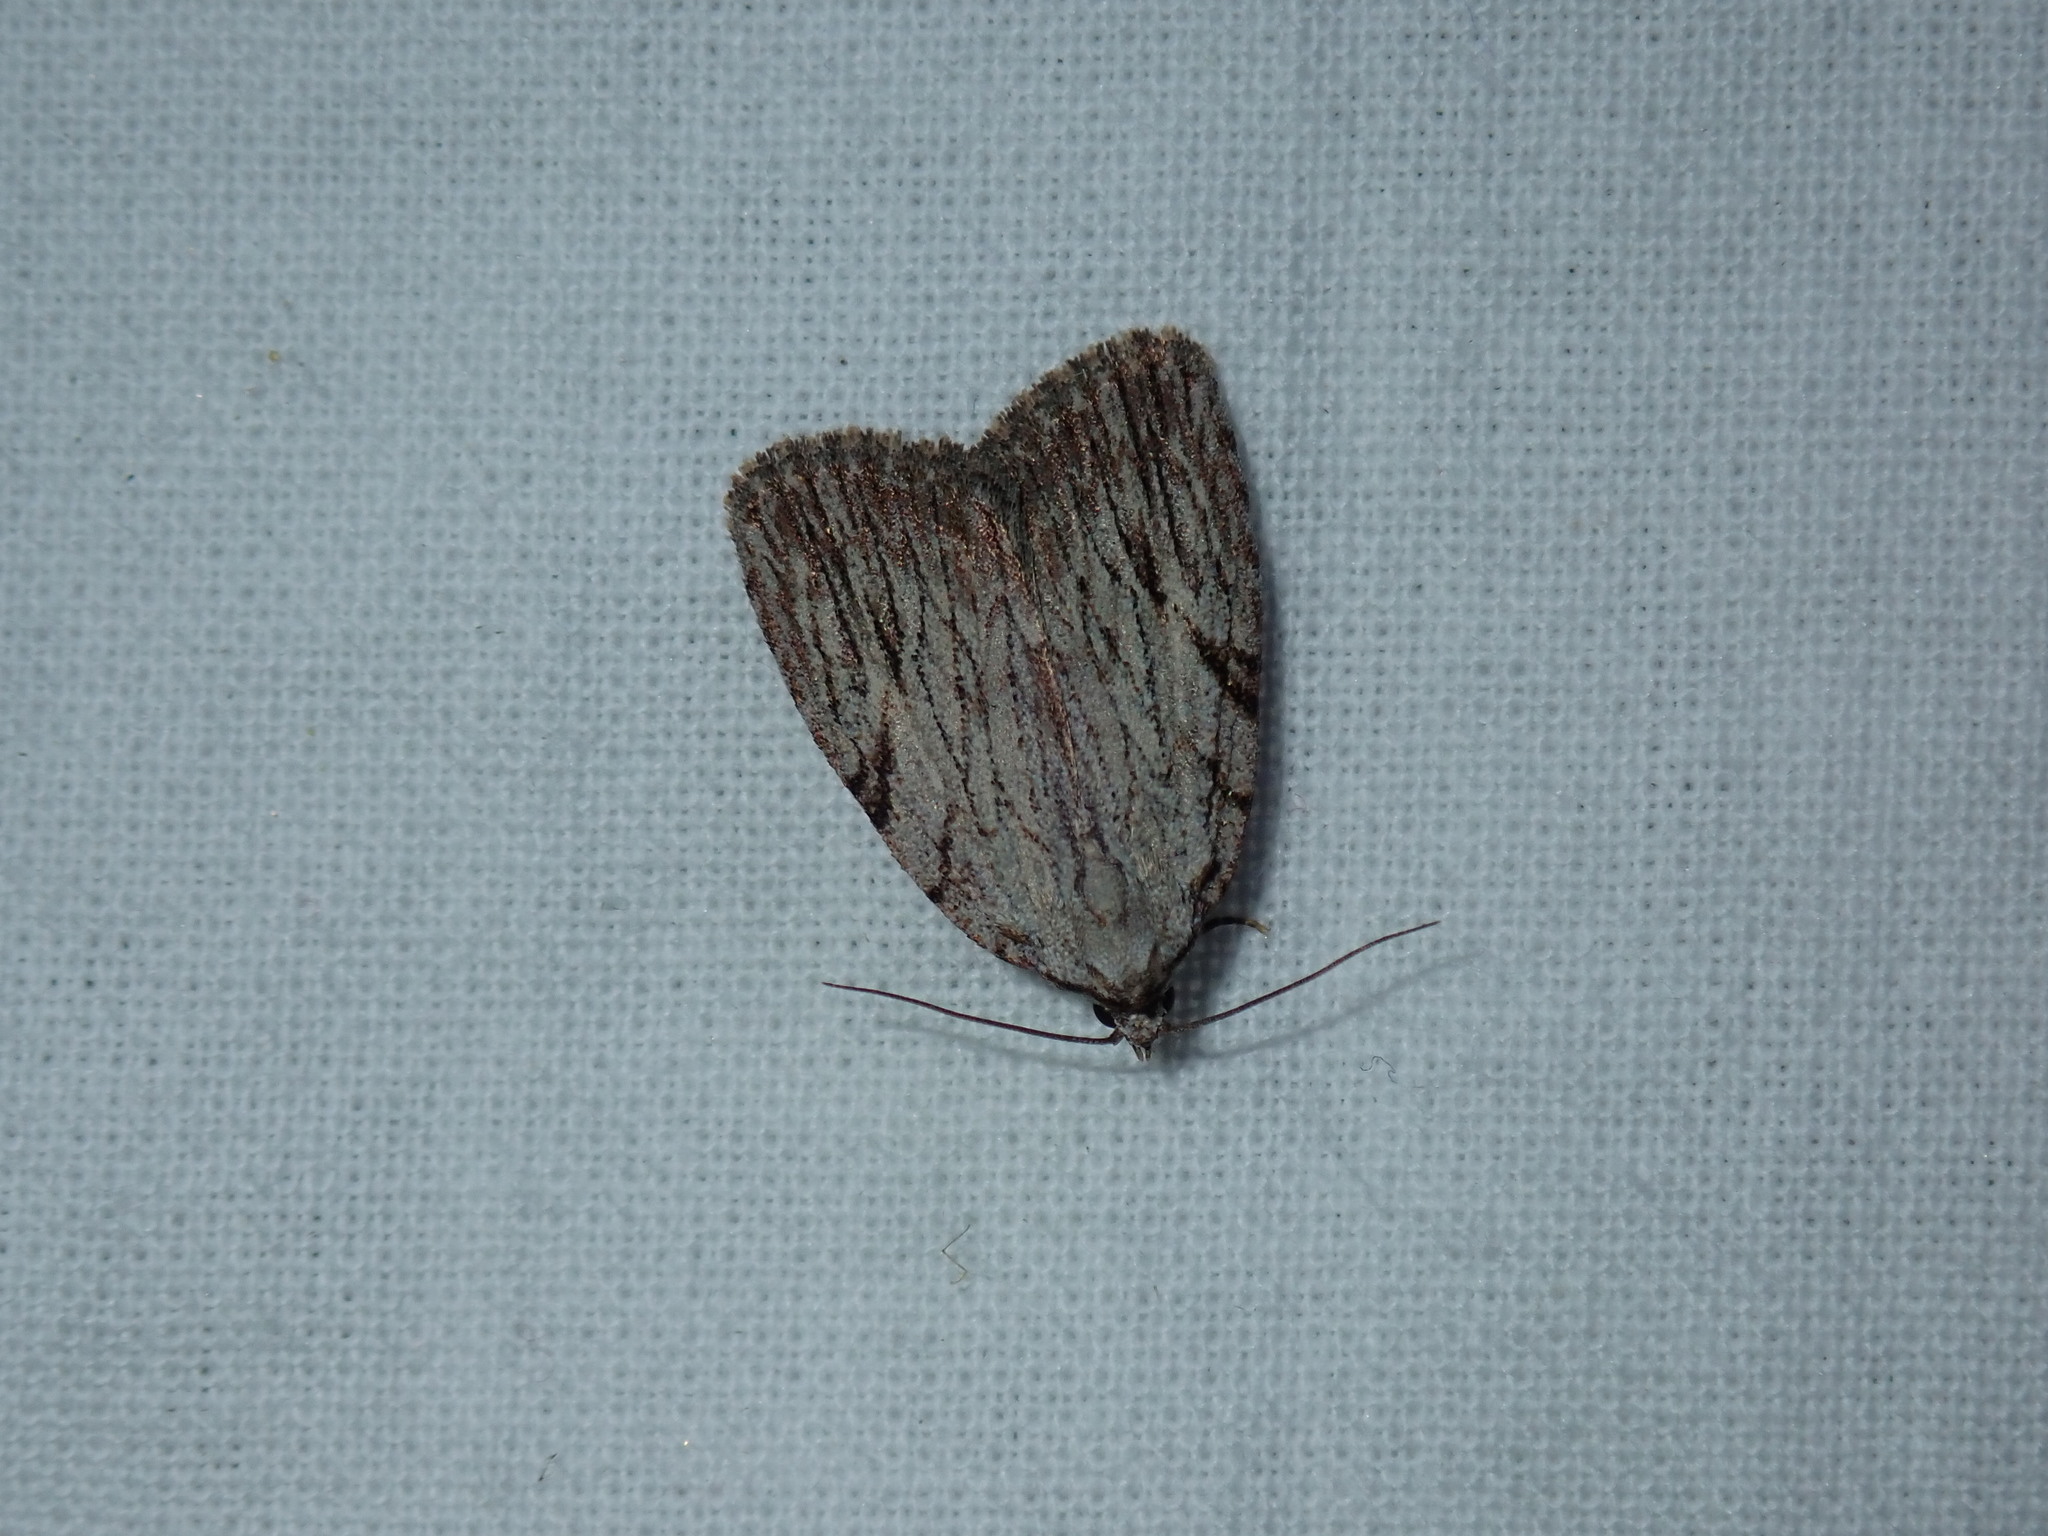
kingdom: Animalia
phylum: Arthropoda
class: Insecta
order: Lepidoptera
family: Noctuidae
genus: Balsa
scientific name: Balsa tristrigella
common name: Three-lined balsa moth
